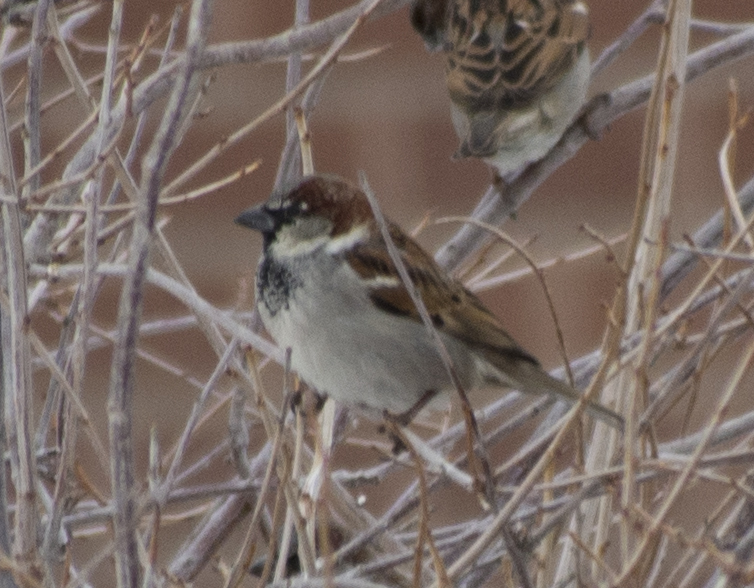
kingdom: Animalia
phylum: Chordata
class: Aves
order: Passeriformes
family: Passeridae
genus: Passer
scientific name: Passer domesticus
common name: House sparrow
